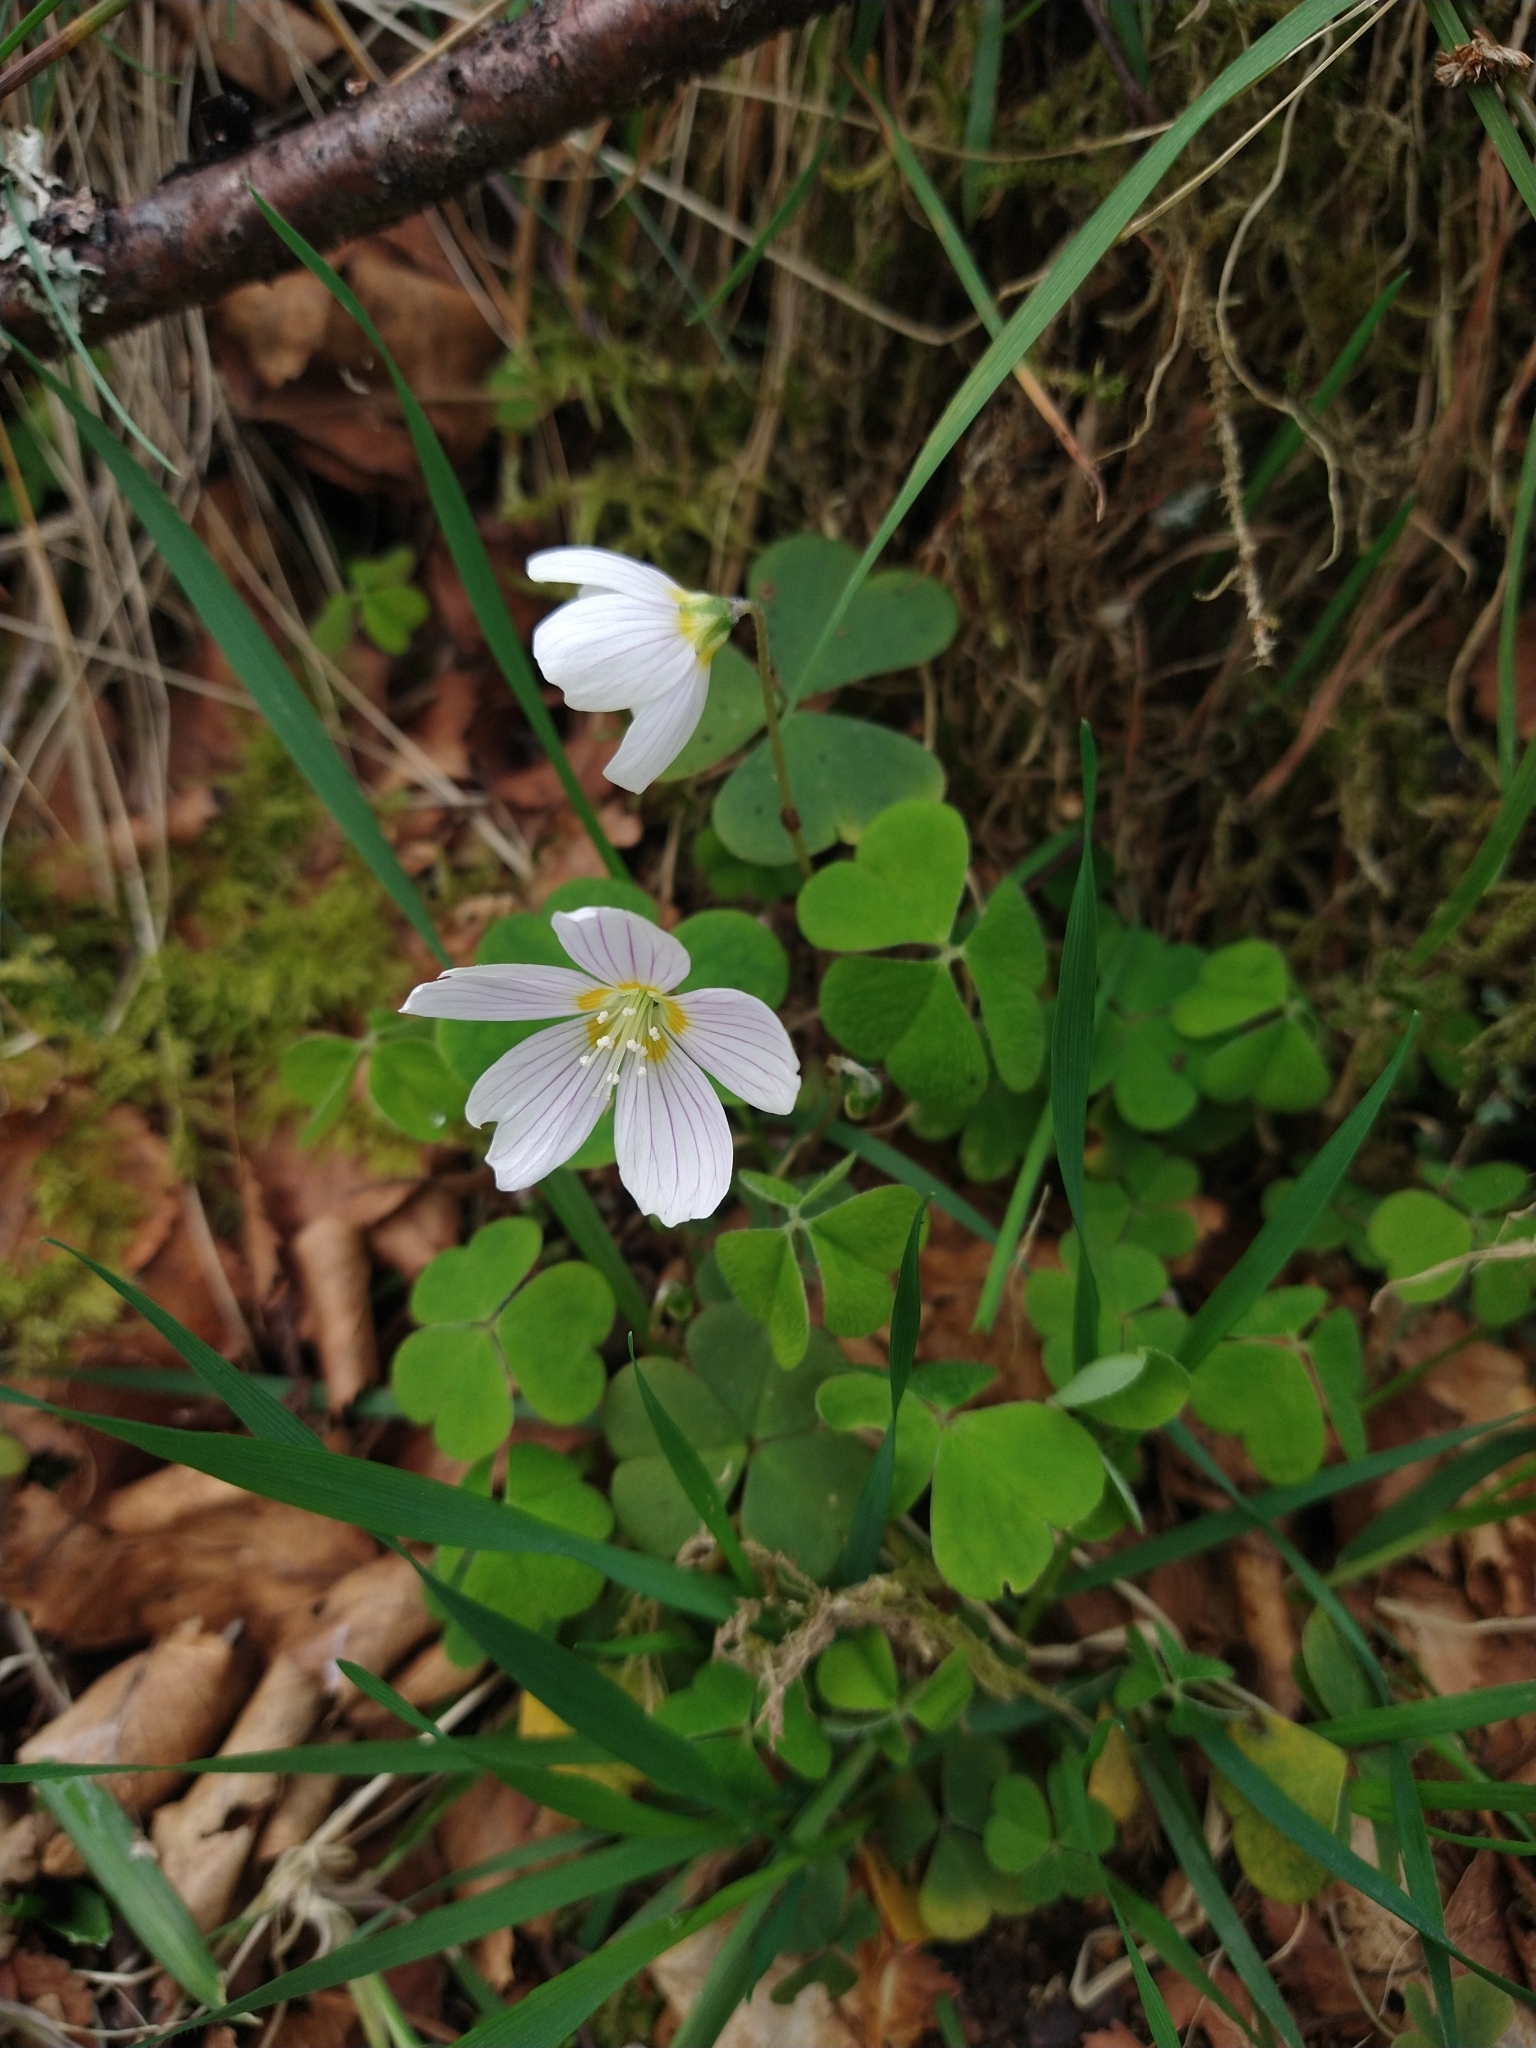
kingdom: Plantae
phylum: Tracheophyta
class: Magnoliopsida
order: Oxalidales
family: Oxalidaceae
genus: Oxalis
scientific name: Oxalis acetosella
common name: Wood-sorrel
